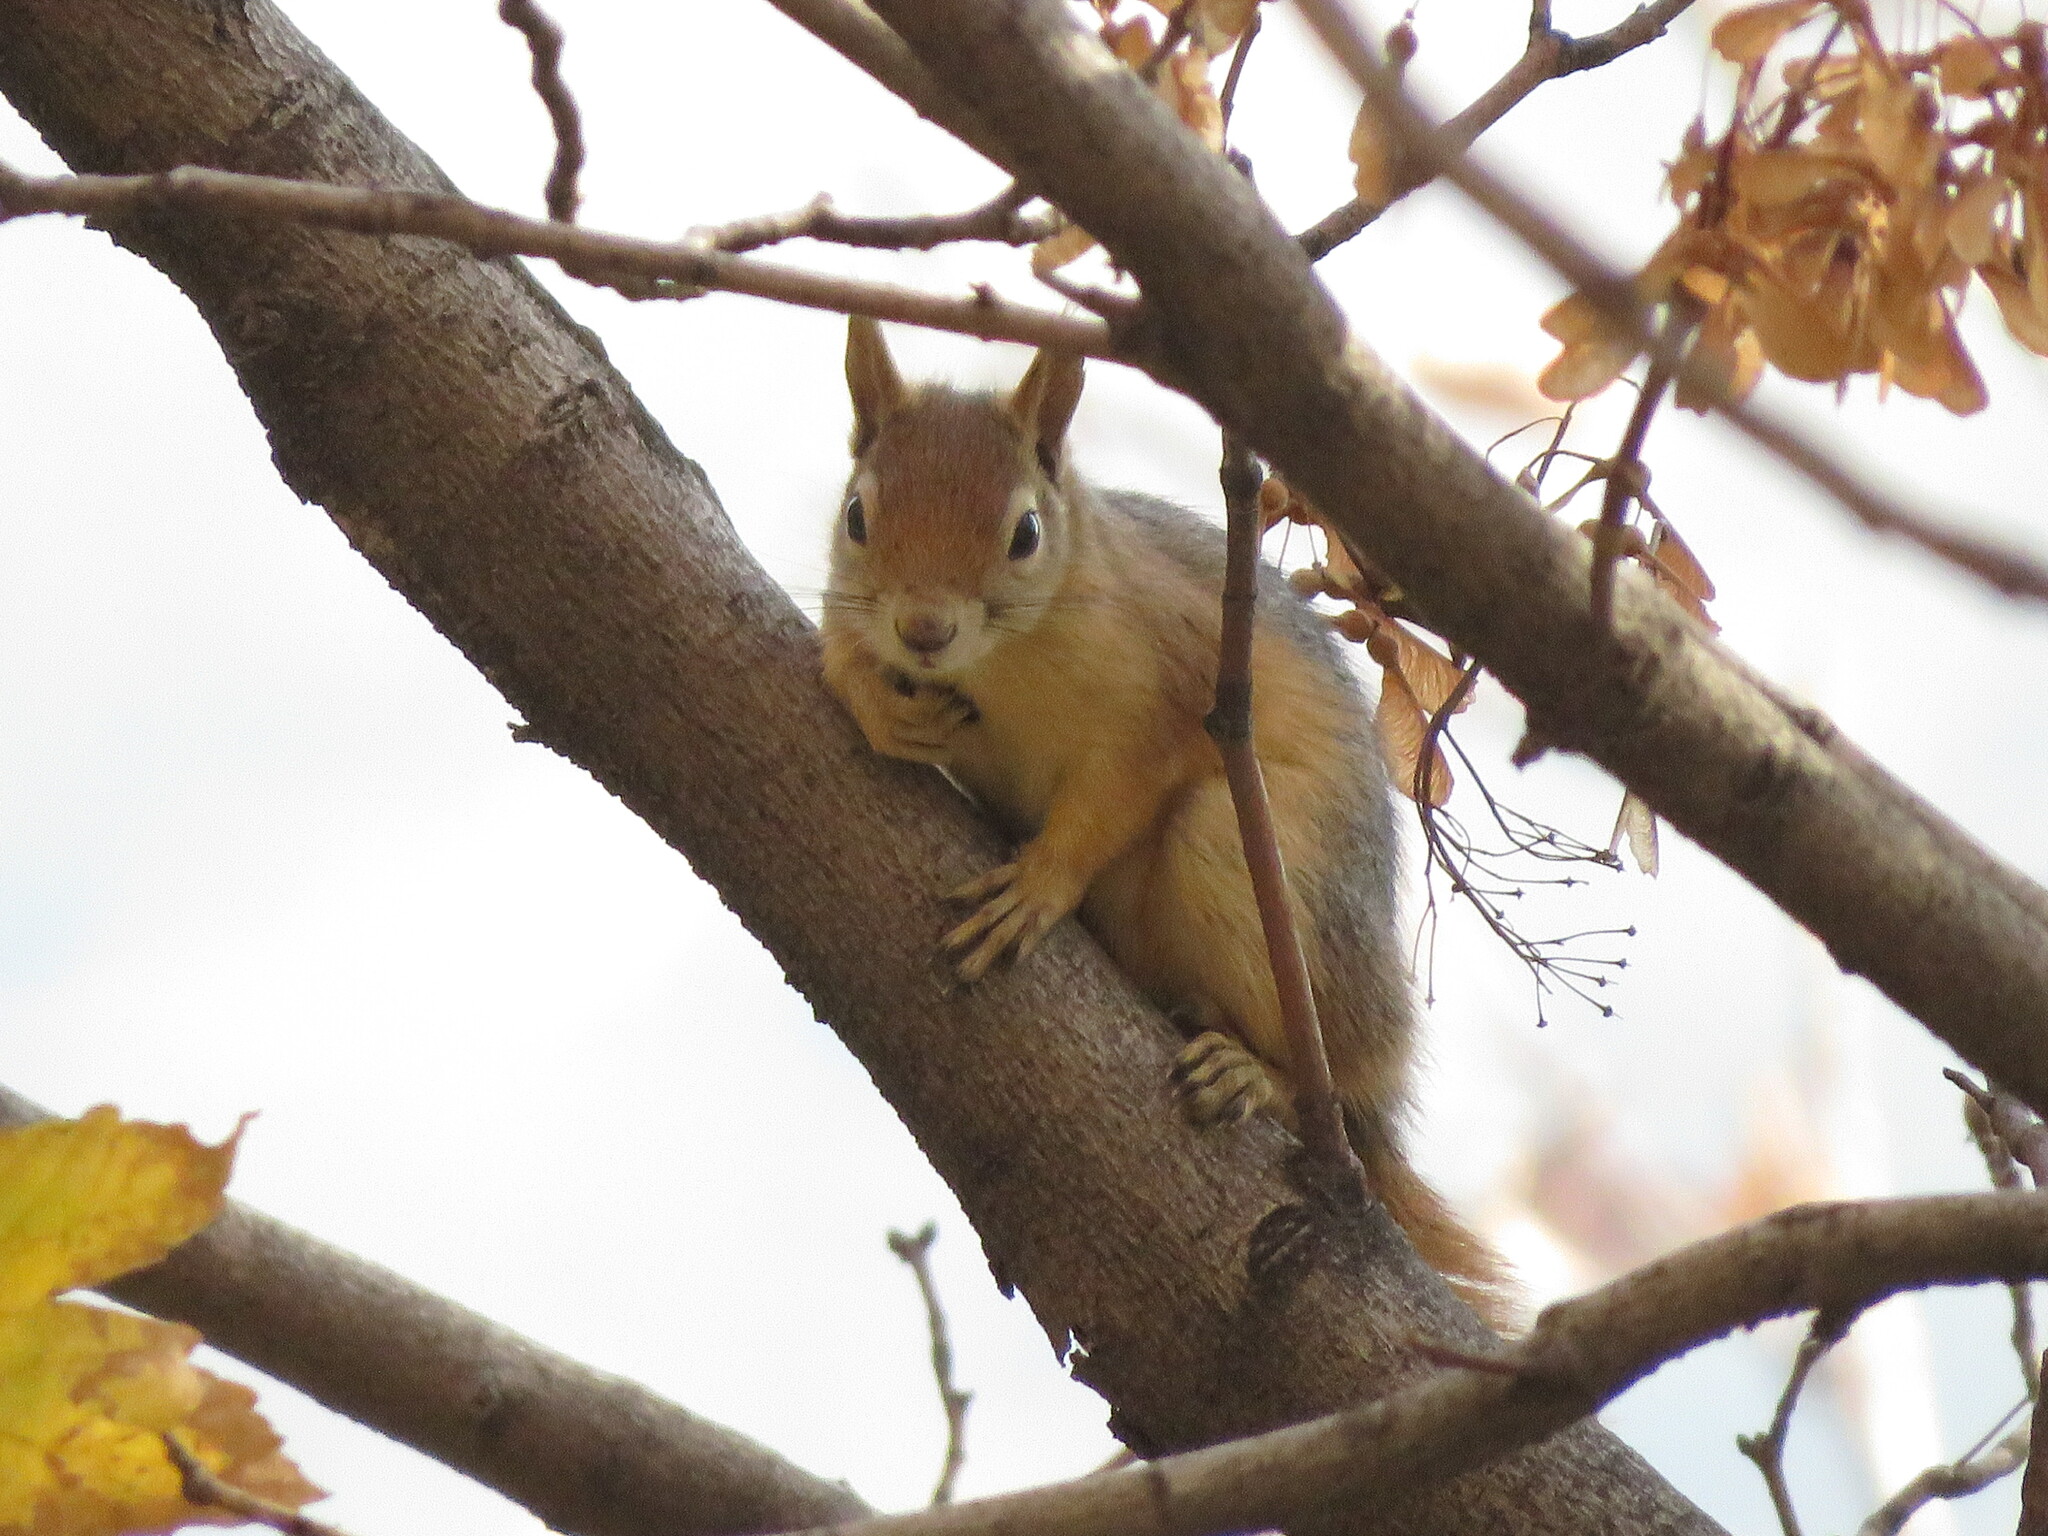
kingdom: Animalia
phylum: Chordata
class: Mammalia
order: Rodentia
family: Sciuridae
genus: Sciurus
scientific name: Sciurus anomalus
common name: Caucasian squirrel
